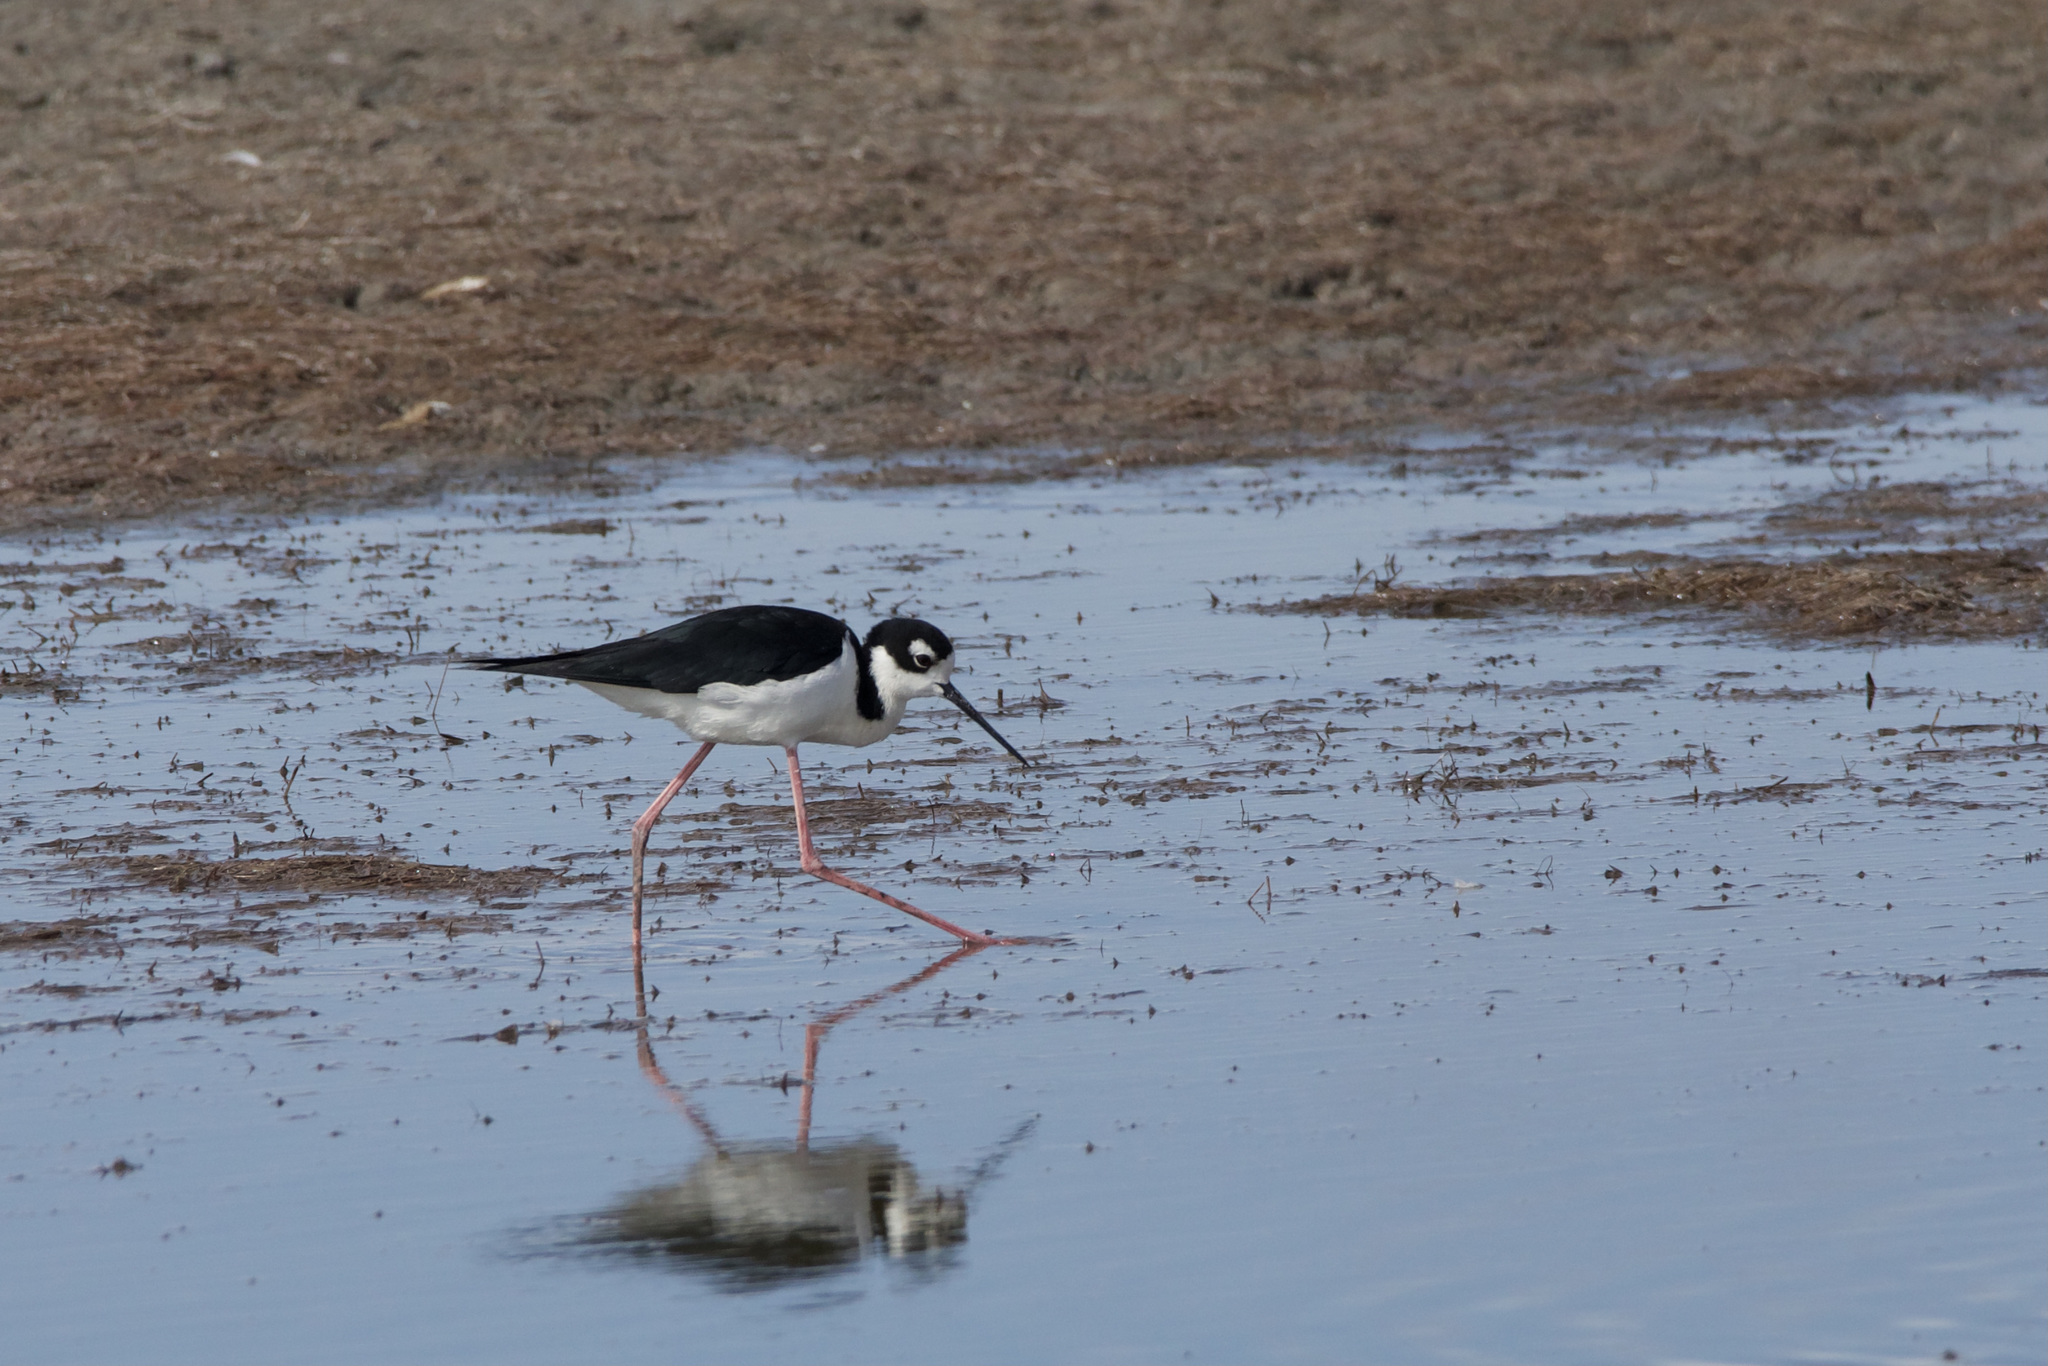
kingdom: Animalia
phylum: Chordata
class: Aves
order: Charadriiformes
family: Recurvirostridae
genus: Himantopus
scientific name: Himantopus mexicanus
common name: Black-necked stilt
